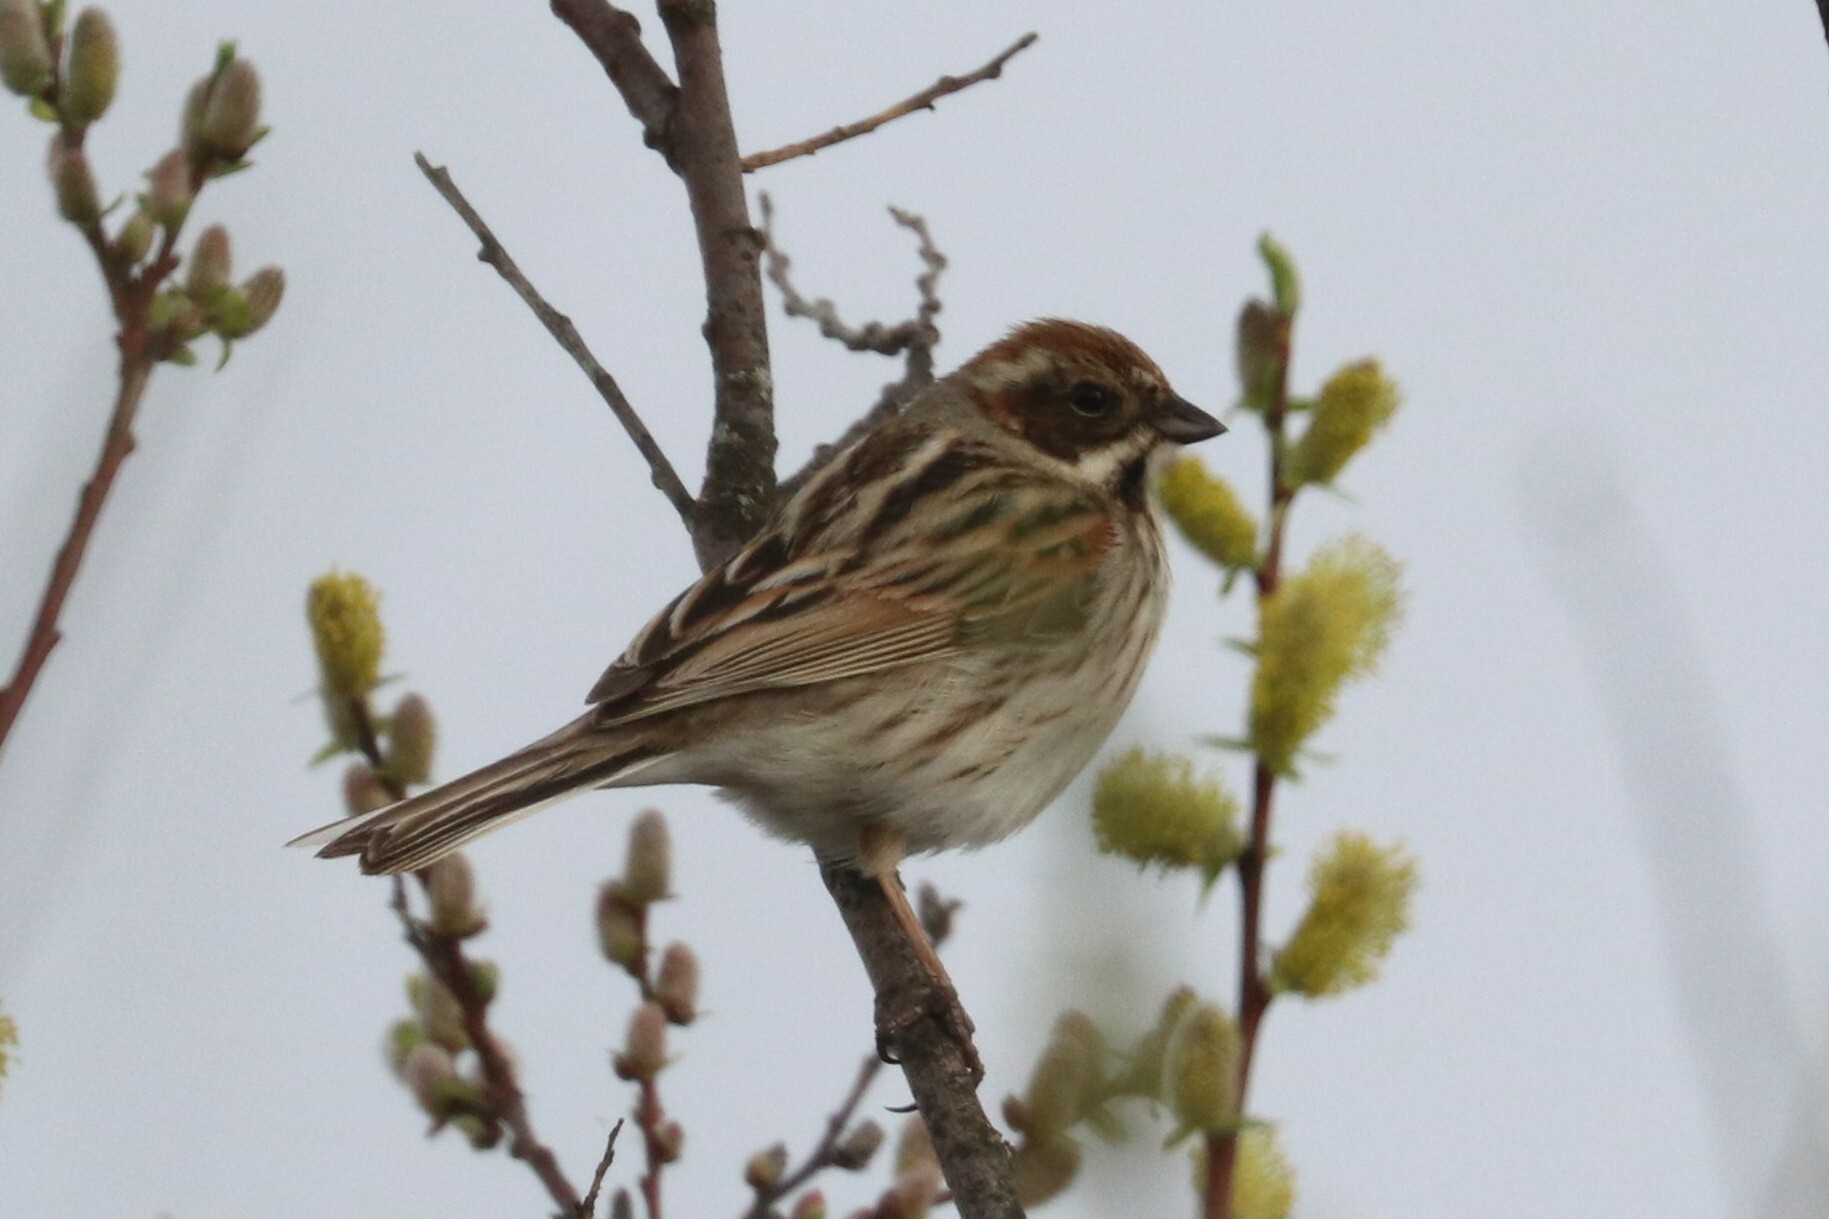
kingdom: Animalia
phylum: Chordata
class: Aves
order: Passeriformes
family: Emberizidae
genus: Emberiza
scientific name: Emberiza schoeniclus
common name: Reed bunting
